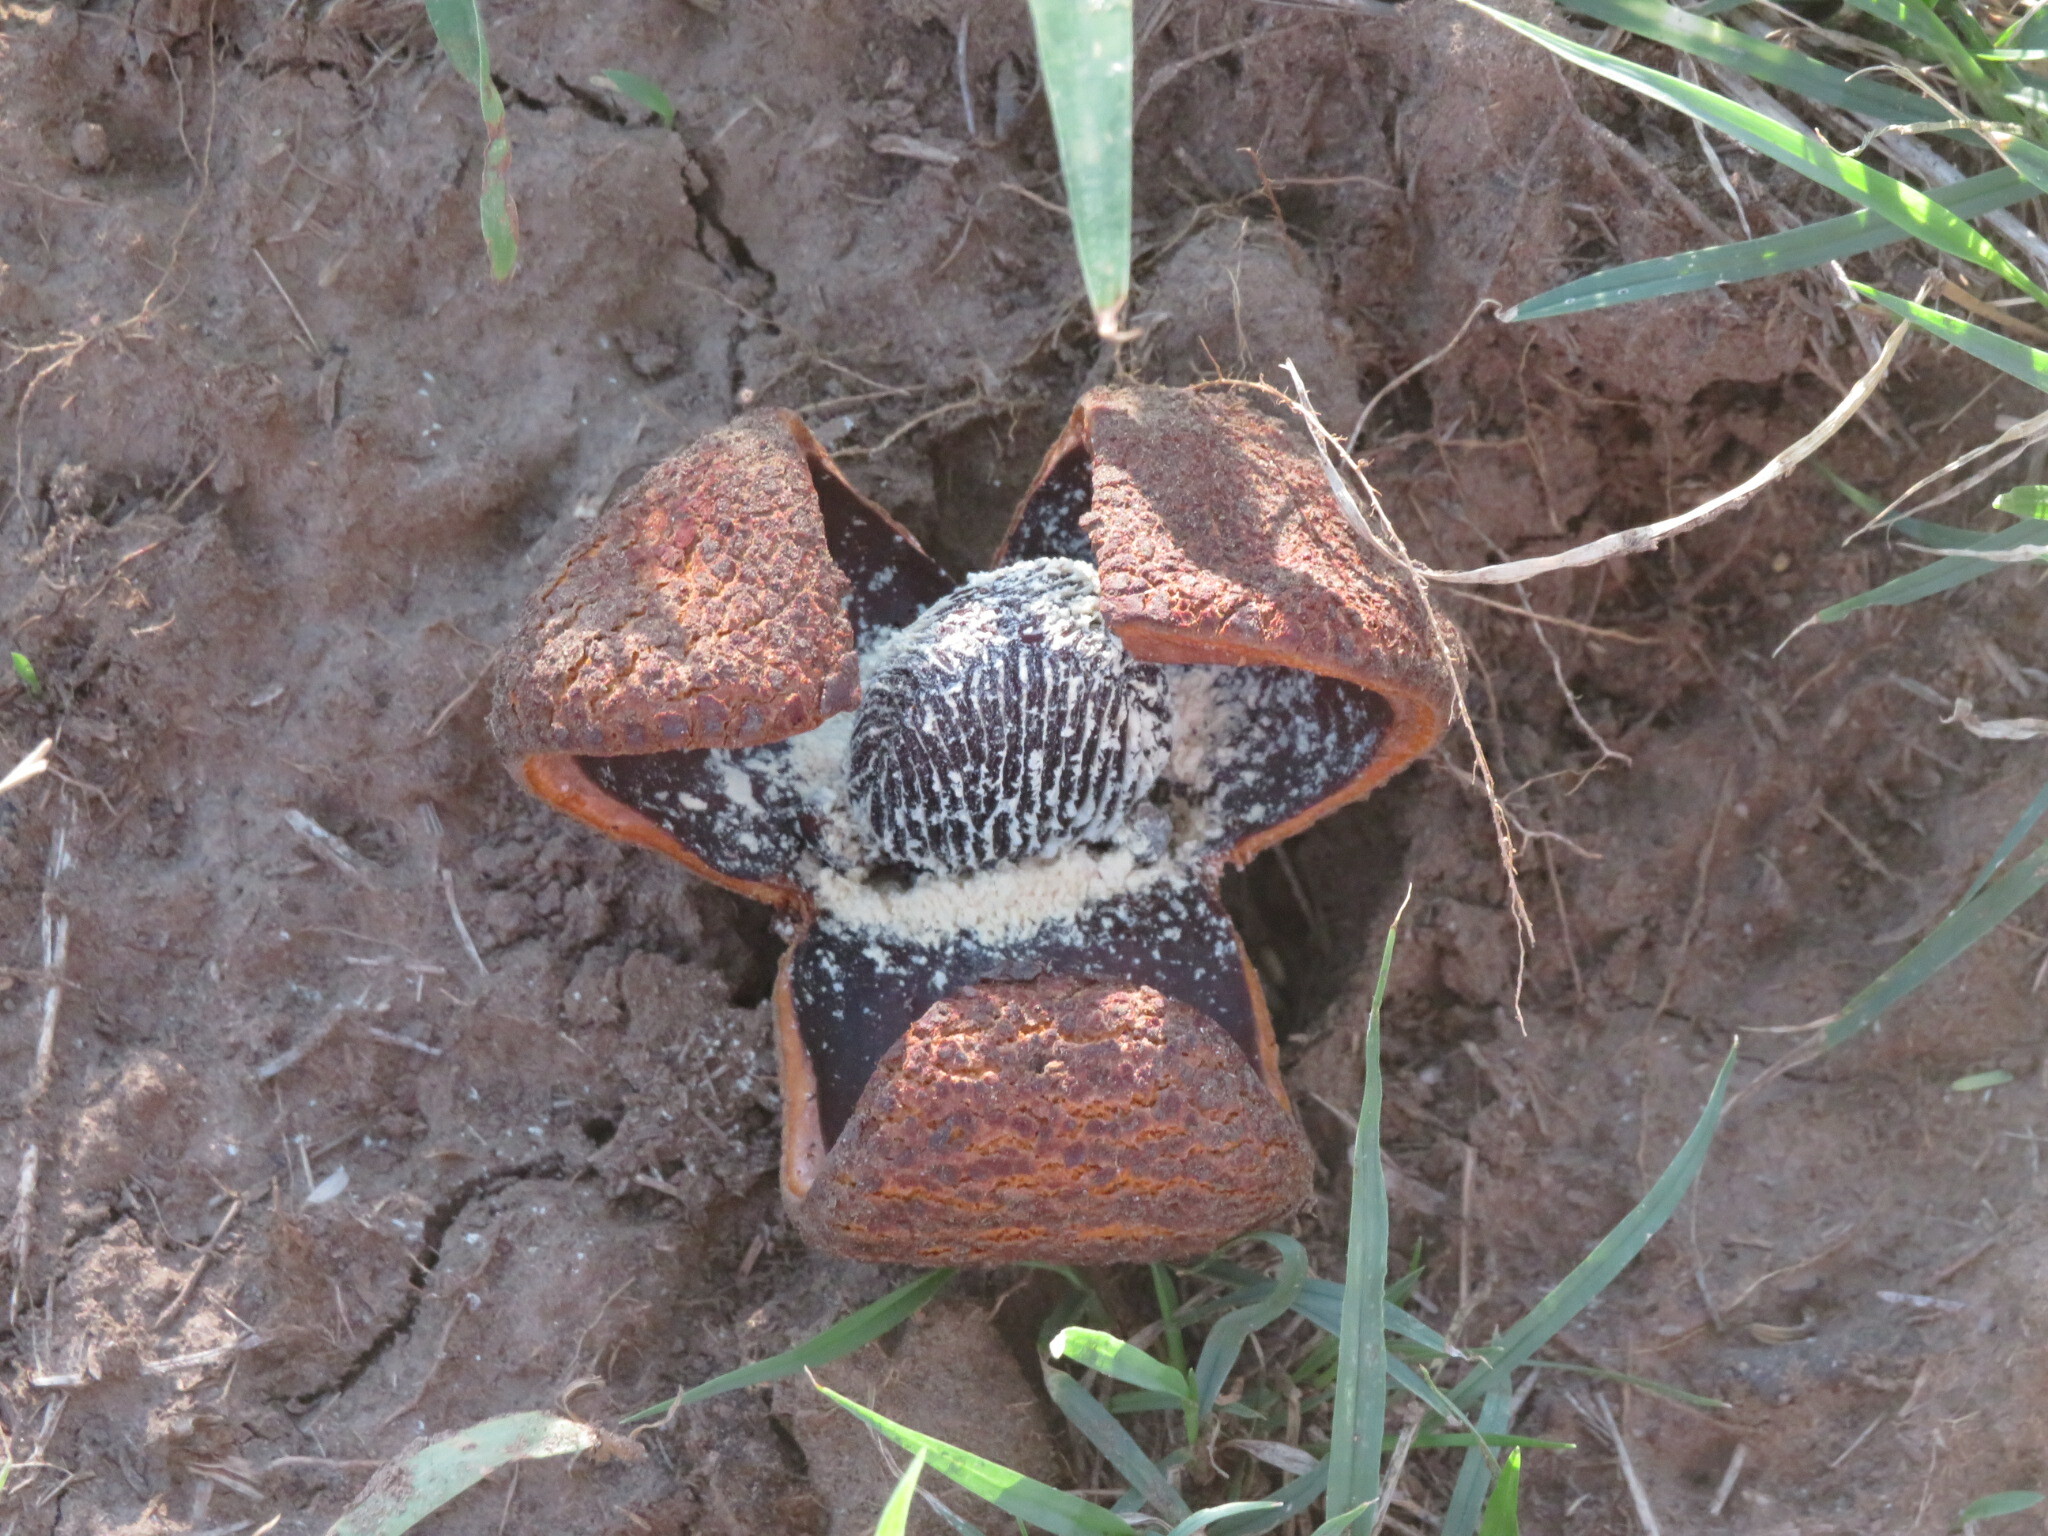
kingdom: Plantae
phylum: Tracheophyta
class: Magnoliopsida
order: Piperales
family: Hydnoraceae
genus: Prosopanche
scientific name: Prosopanche americana
